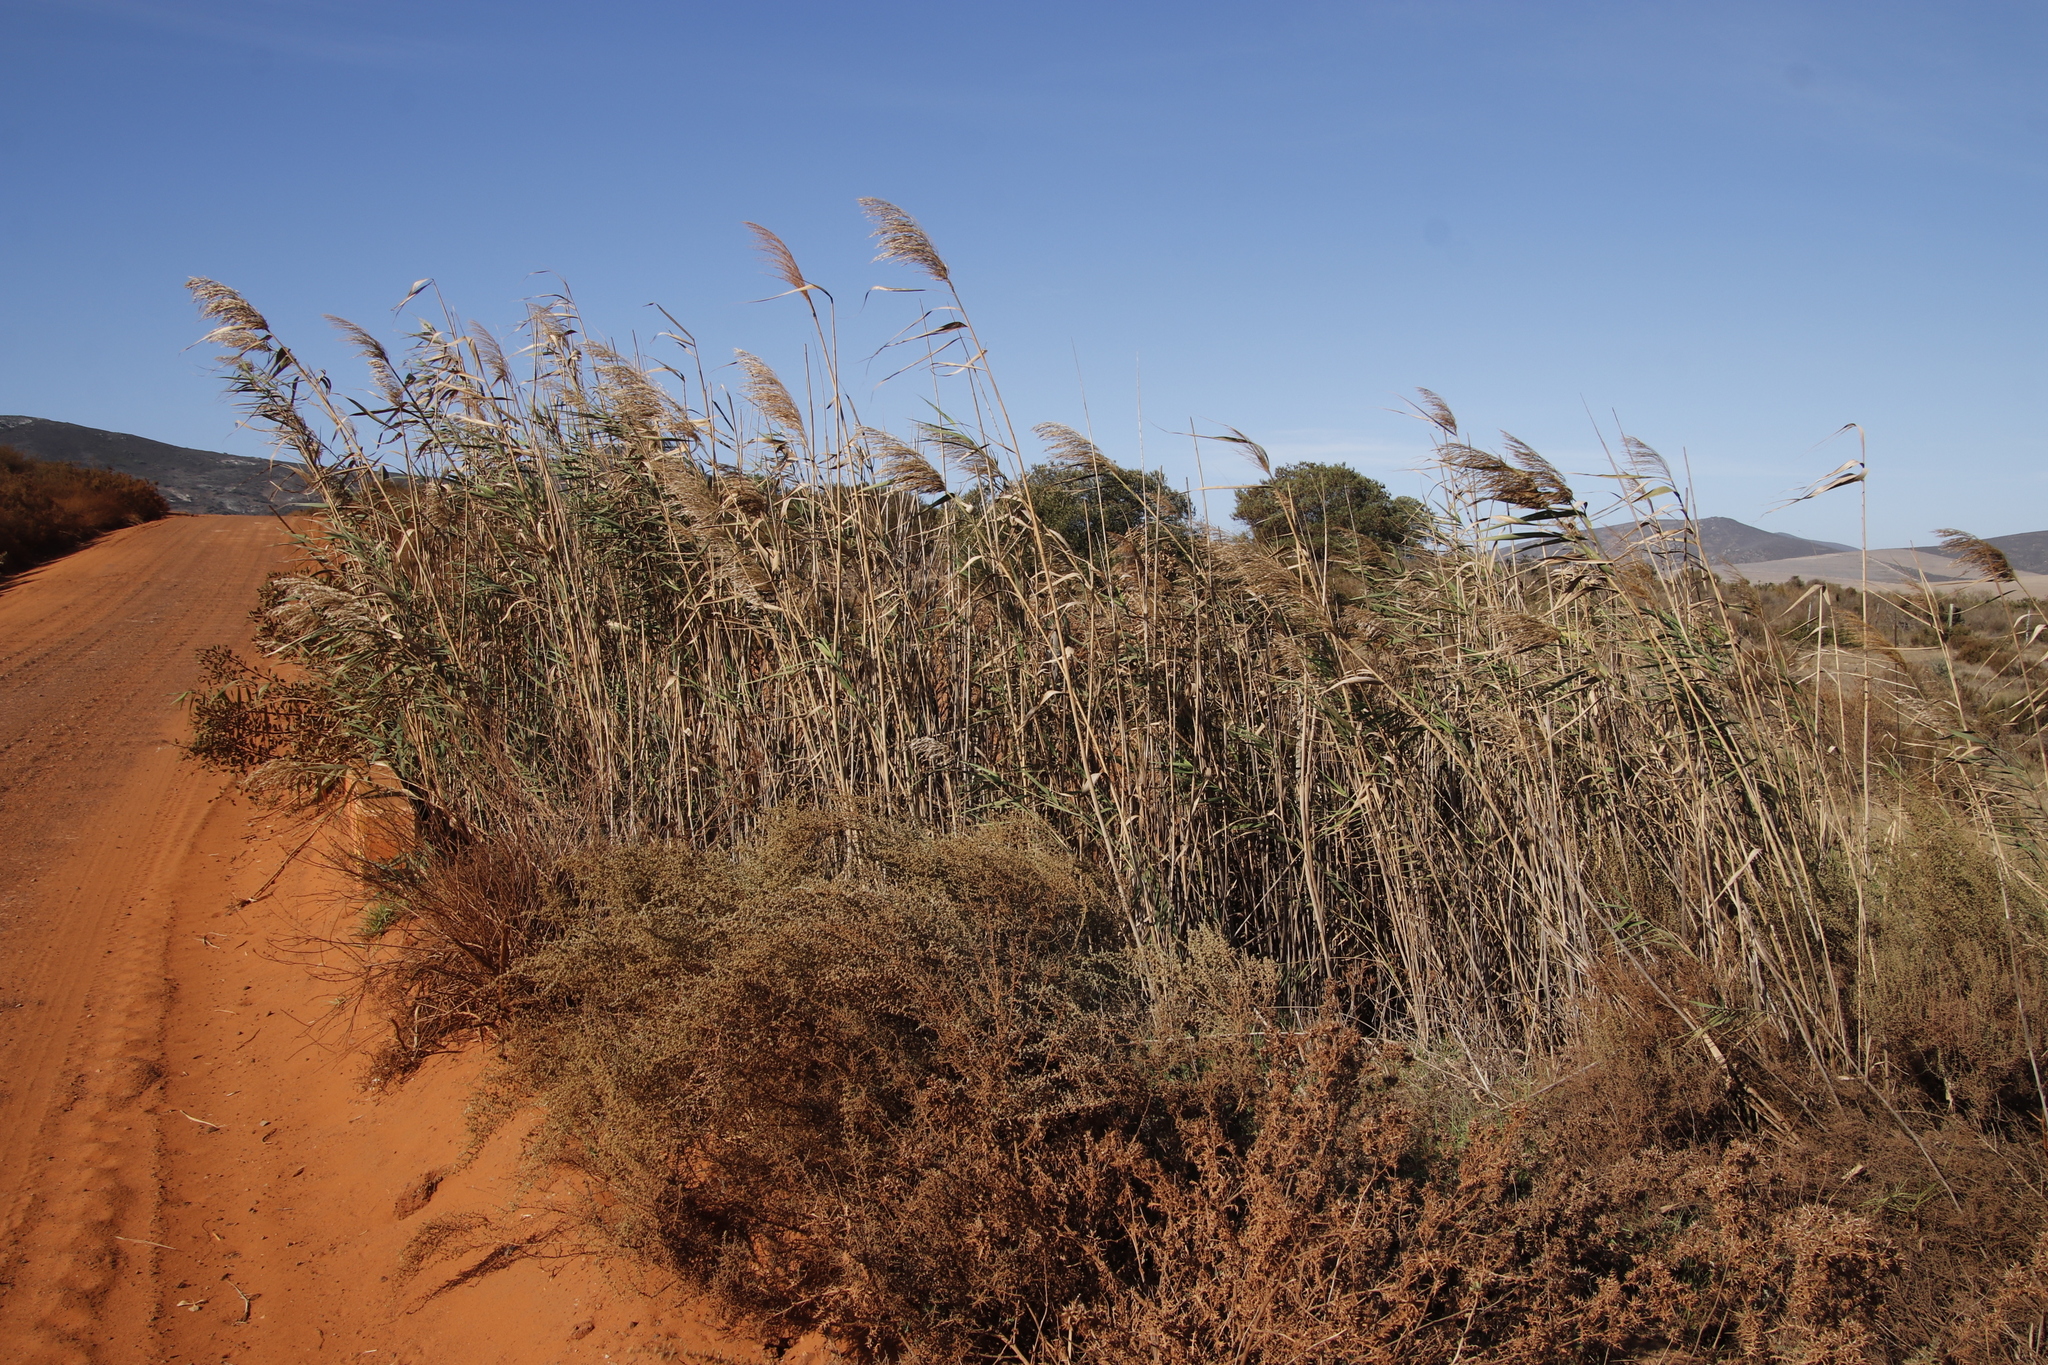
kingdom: Plantae
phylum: Tracheophyta
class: Liliopsida
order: Poales
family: Poaceae
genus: Phragmites
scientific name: Phragmites australis
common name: Common reed
